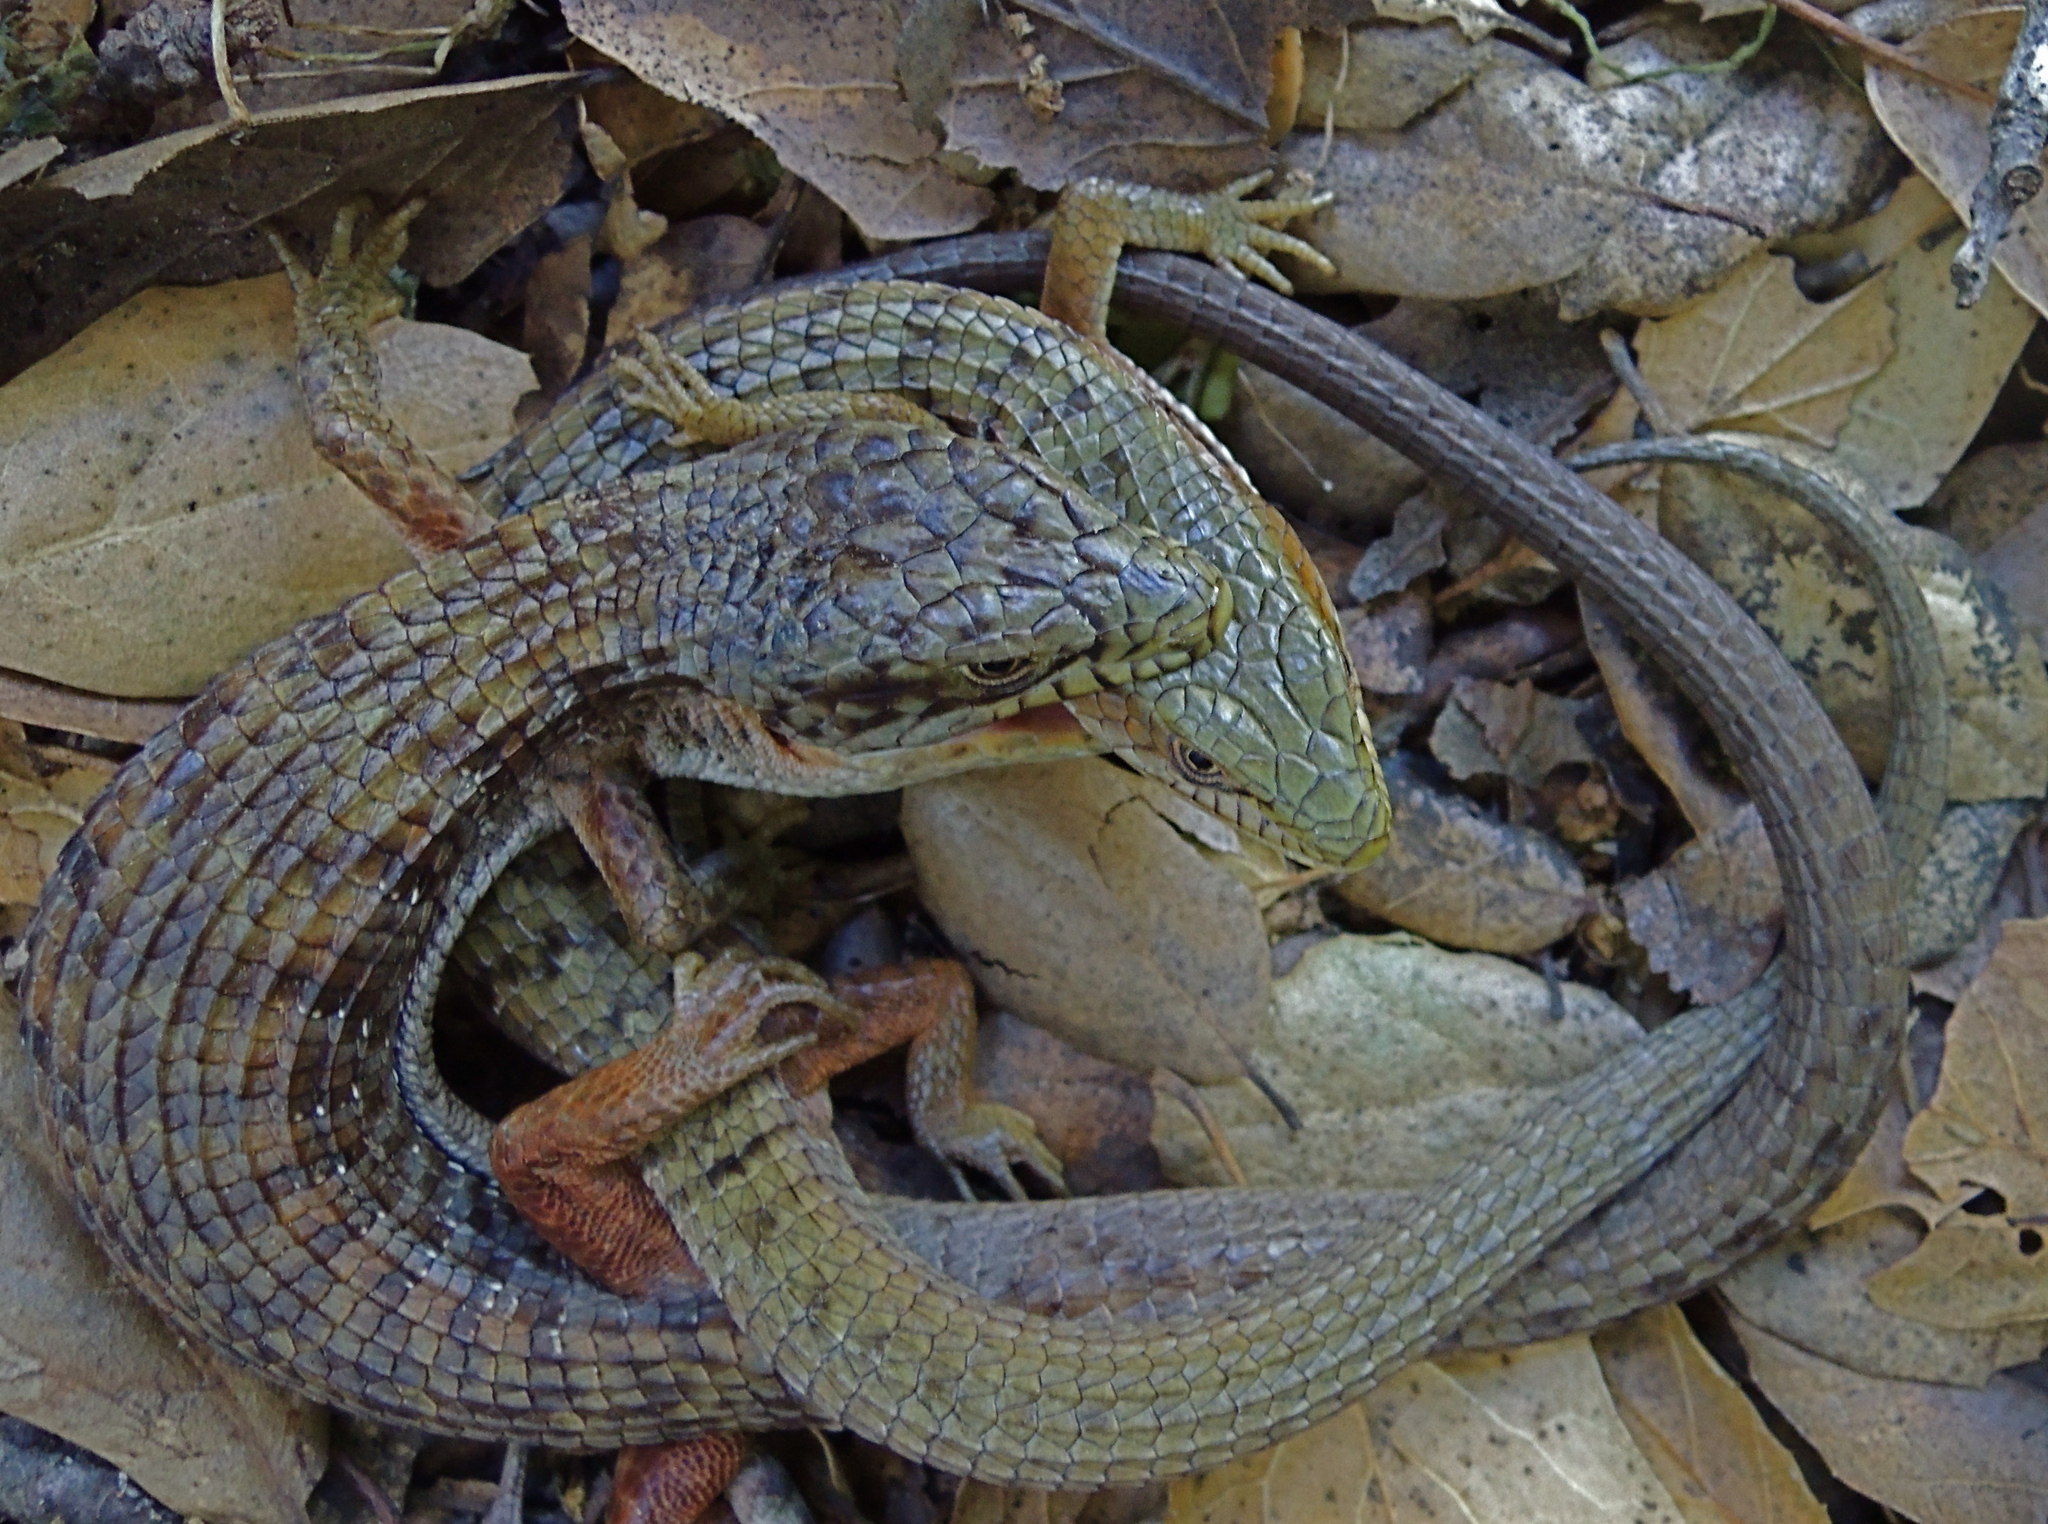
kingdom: Animalia
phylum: Chordata
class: Squamata
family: Anguidae
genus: Elgaria
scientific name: Elgaria multicarinata
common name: Southern alligator lizard
